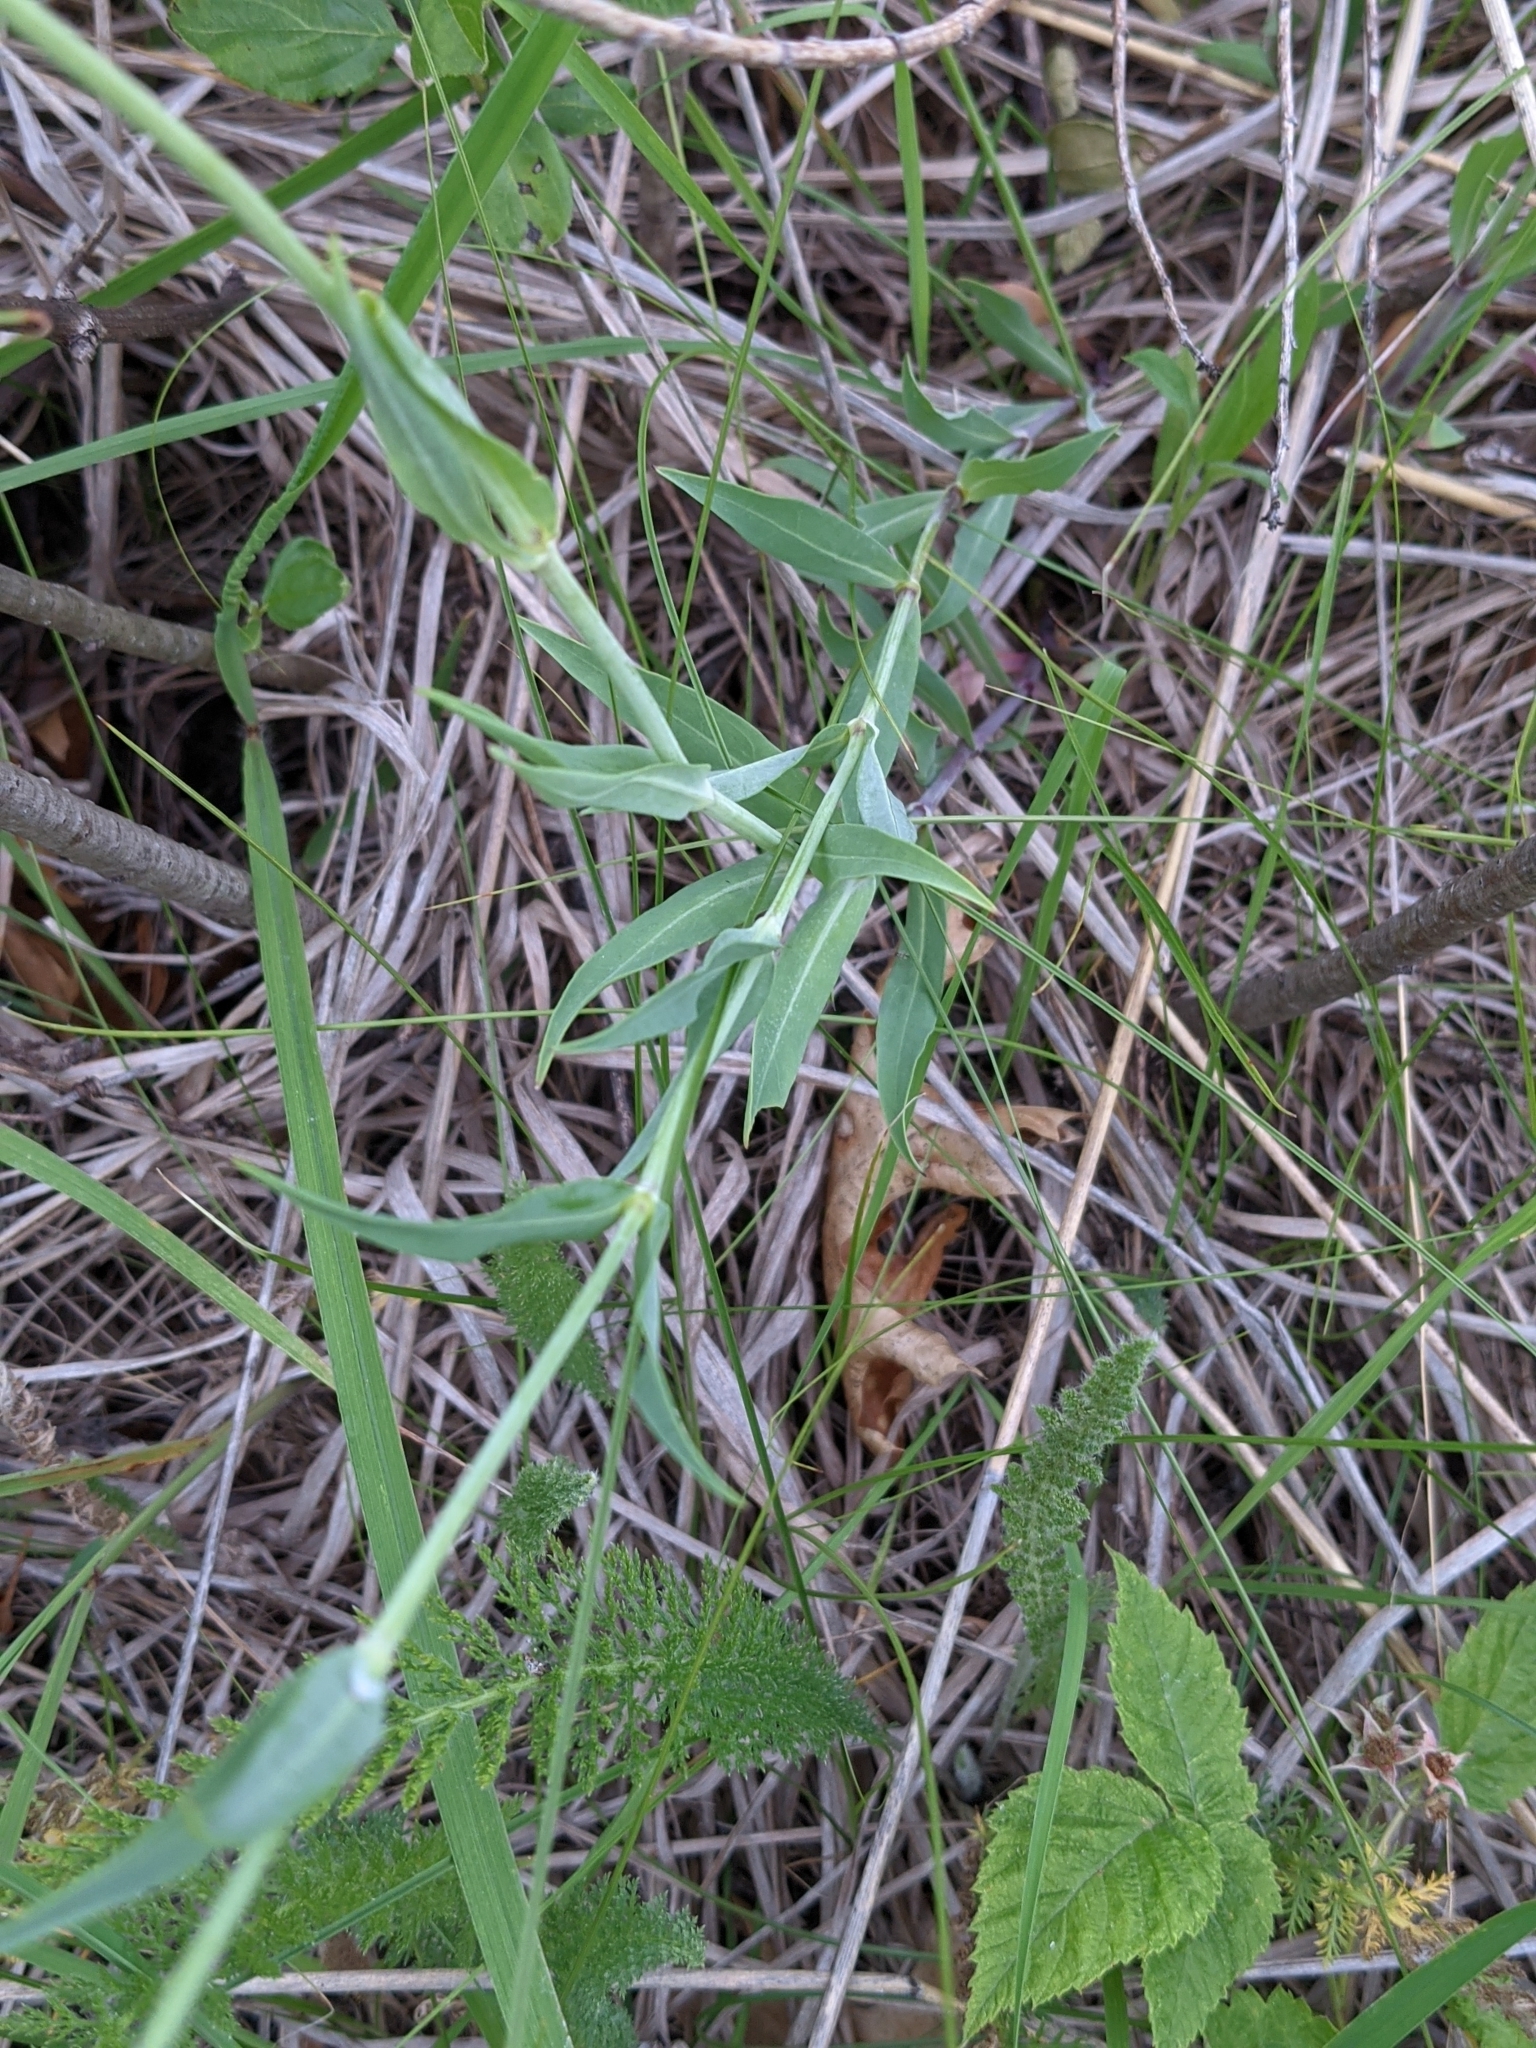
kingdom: Plantae
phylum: Tracheophyta
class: Magnoliopsida
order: Caryophyllales
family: Caryophyllaceae
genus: Silene
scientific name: Silene vulgaris
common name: Bladder campion
